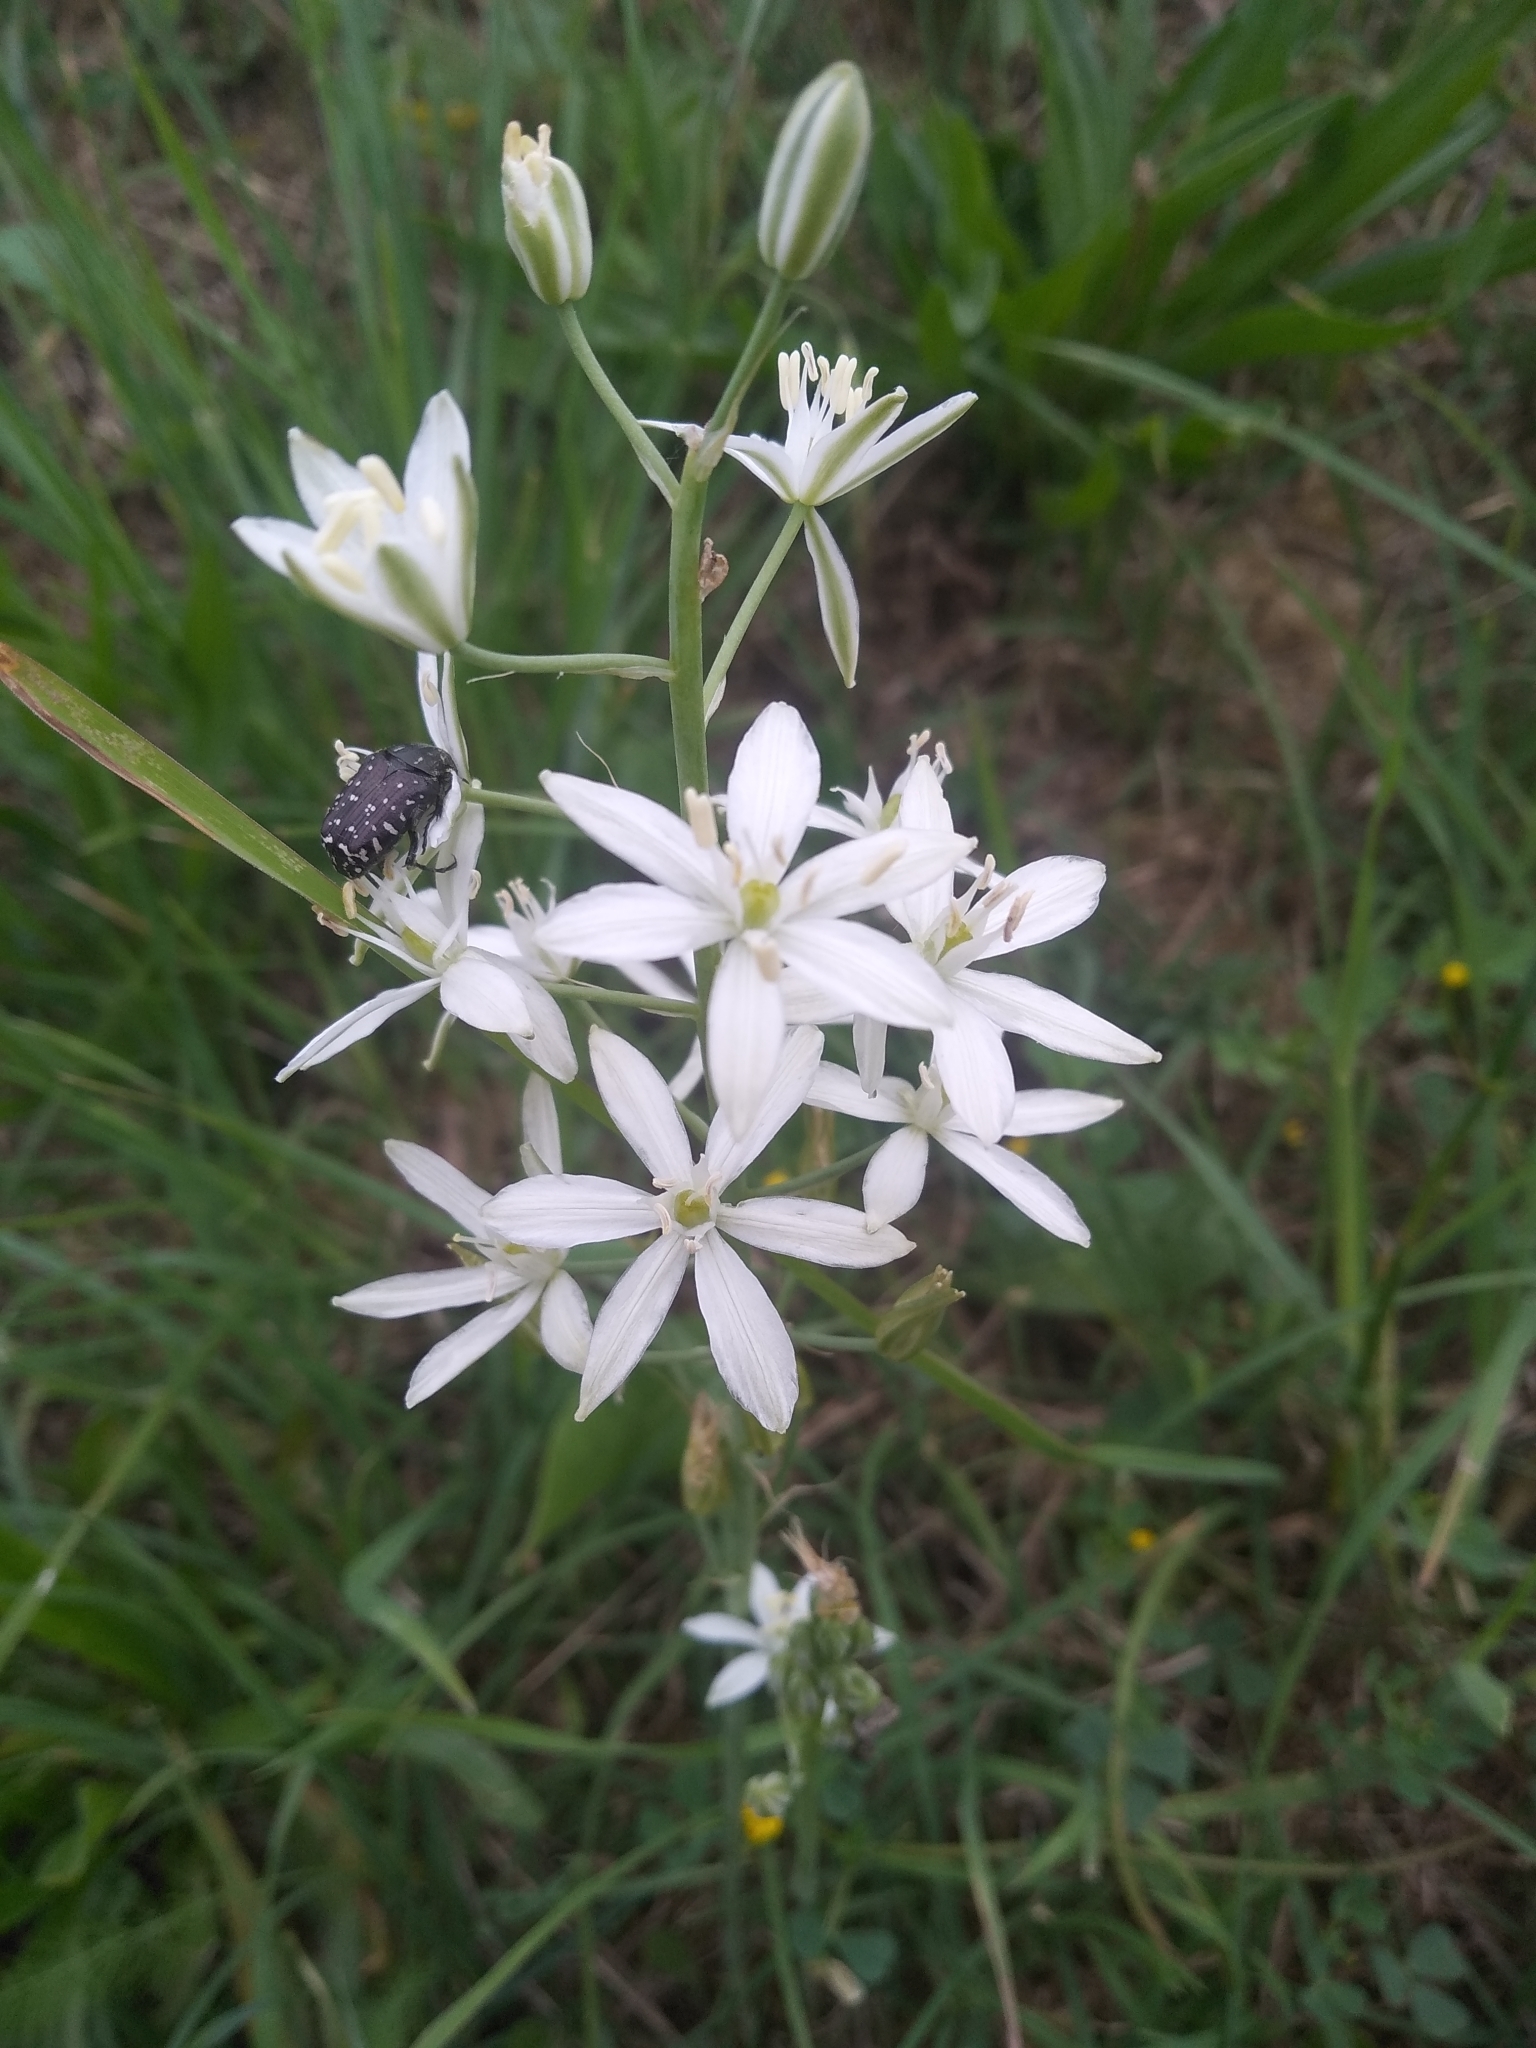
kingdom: Plantae
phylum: Tracheophyta
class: Liliopsida
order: Asparagales
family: Asparagaceae
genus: Ornithogalum
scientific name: Ornithogalum narbonense
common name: Bath-asparagus
